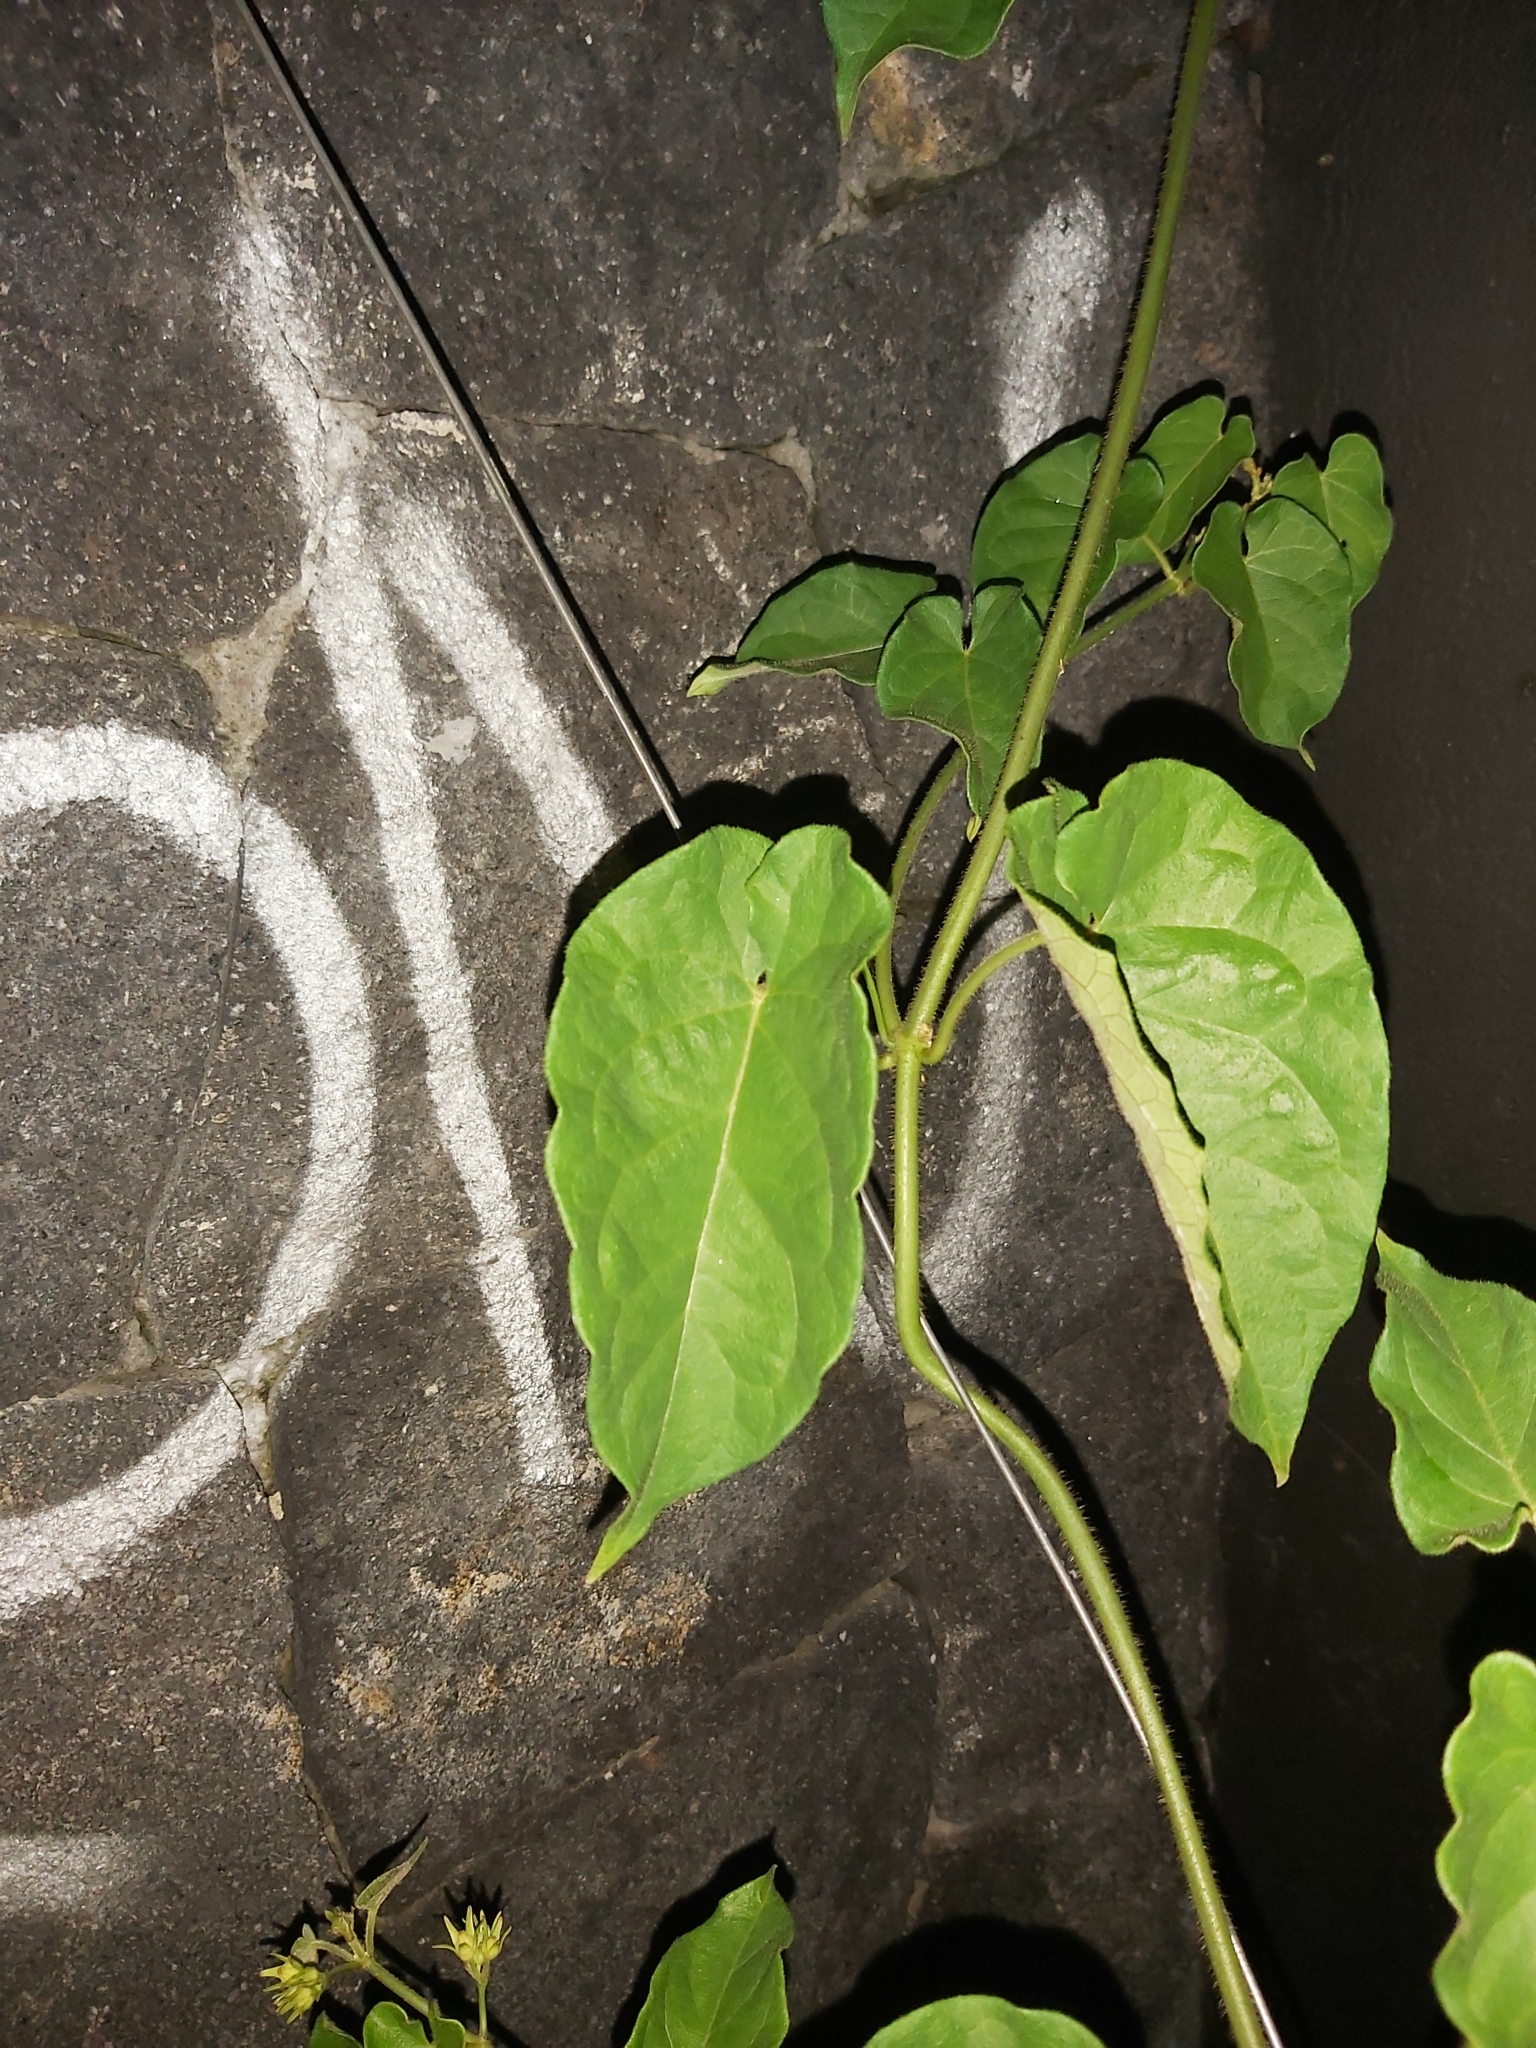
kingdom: Plantae
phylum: Tracheophyta
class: Magnoliopsida
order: Gentianales
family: Apocynaceae
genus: Gonolobus
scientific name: Gonolobus edulis
